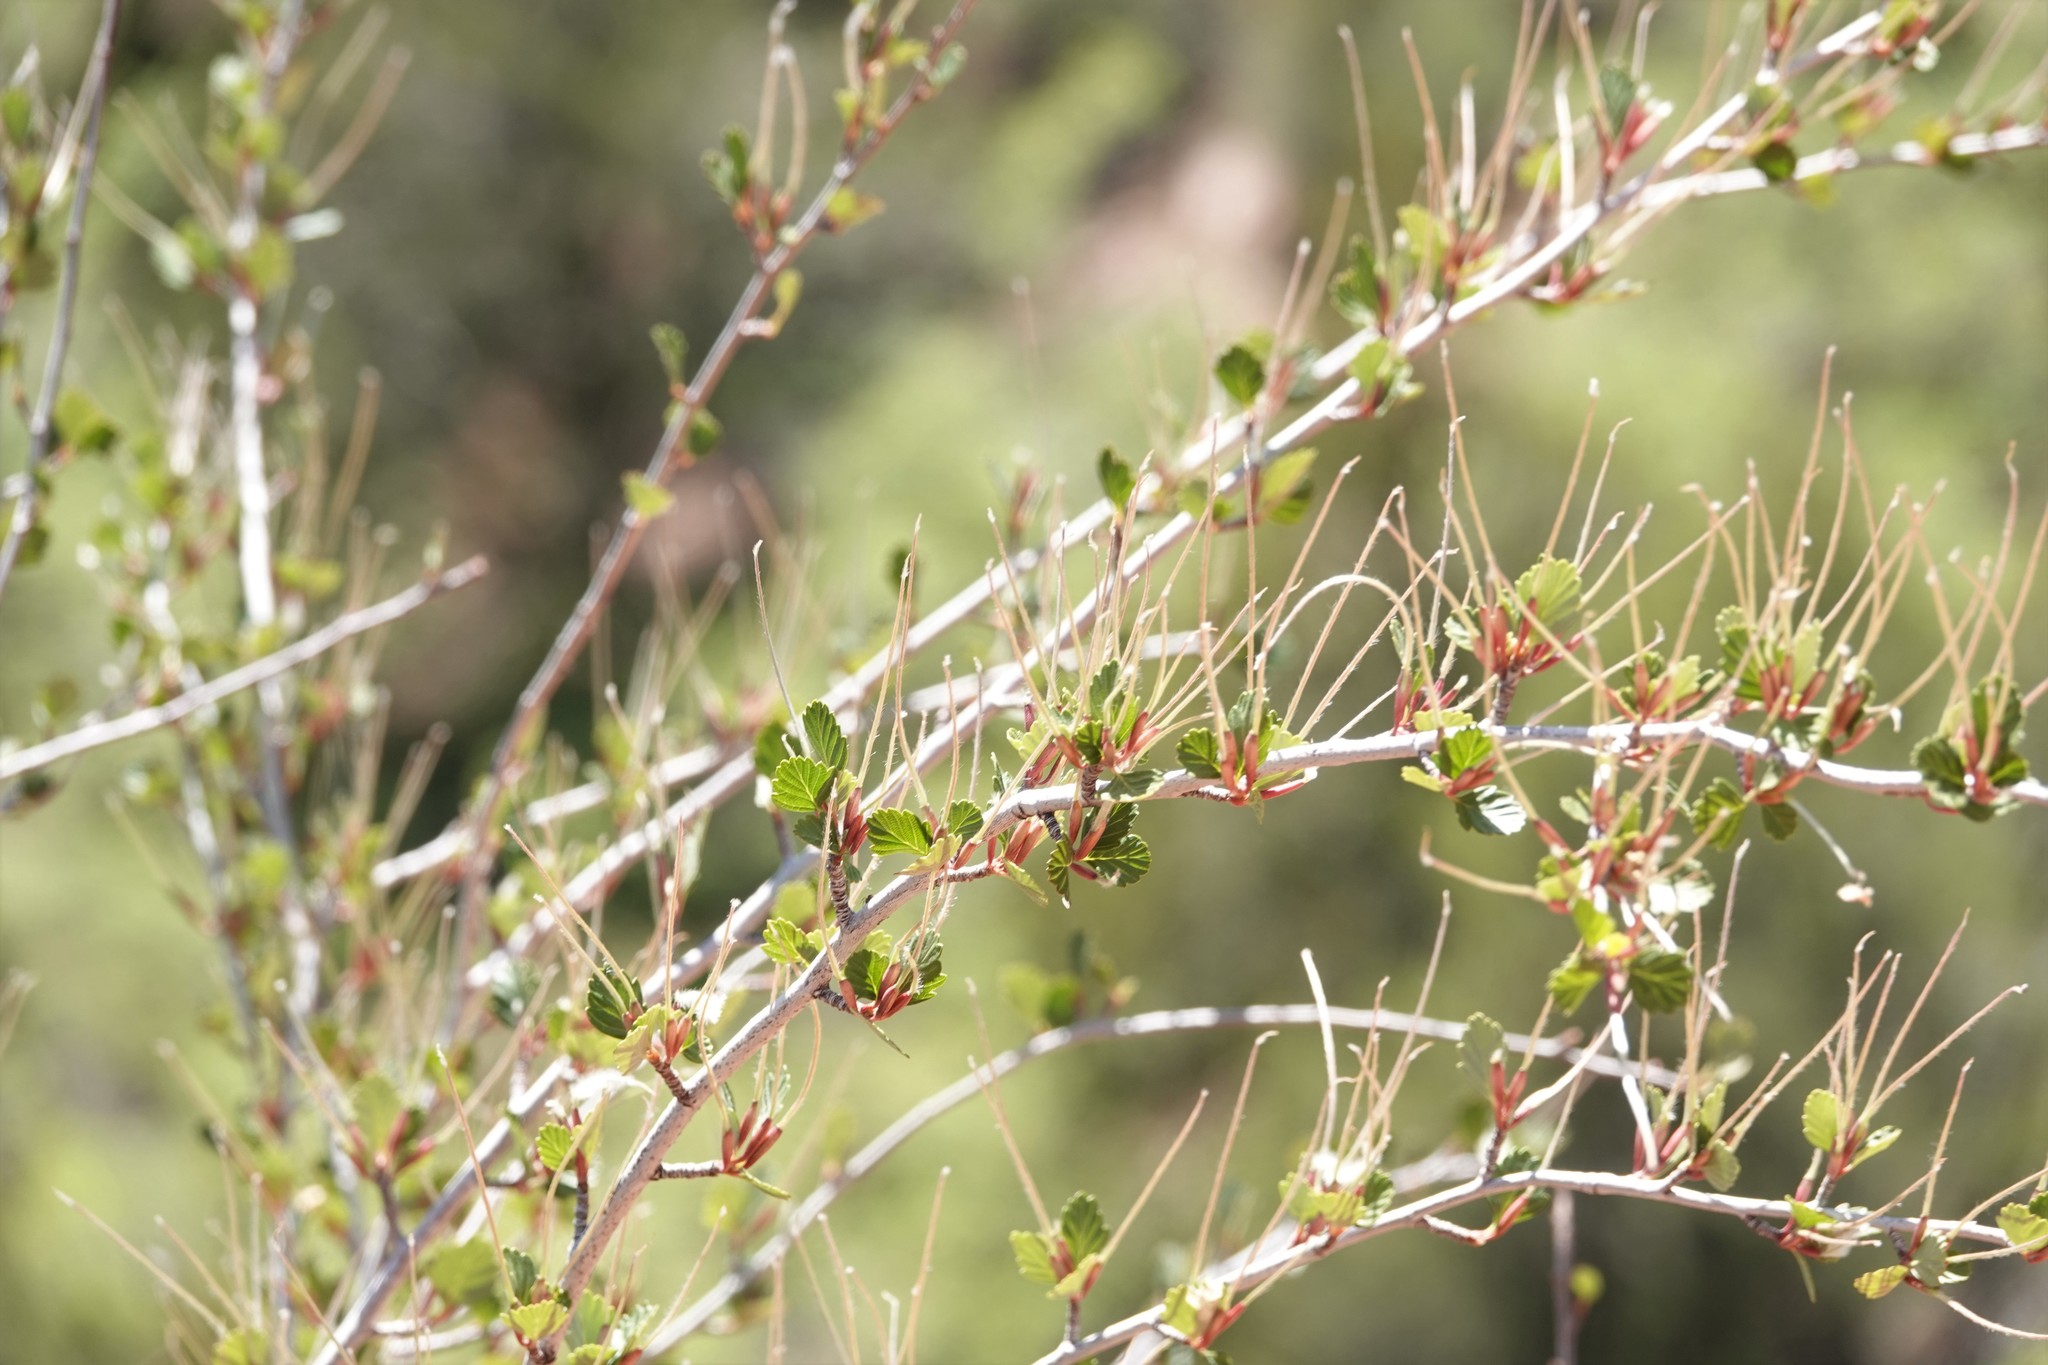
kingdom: Plantae
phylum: Tracheophyta
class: Magnoliopsida
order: Rosales
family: Rosaceae
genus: Cercocarpus
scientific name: Cercocarpus montanus
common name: Alder-leaf cercocarpus
